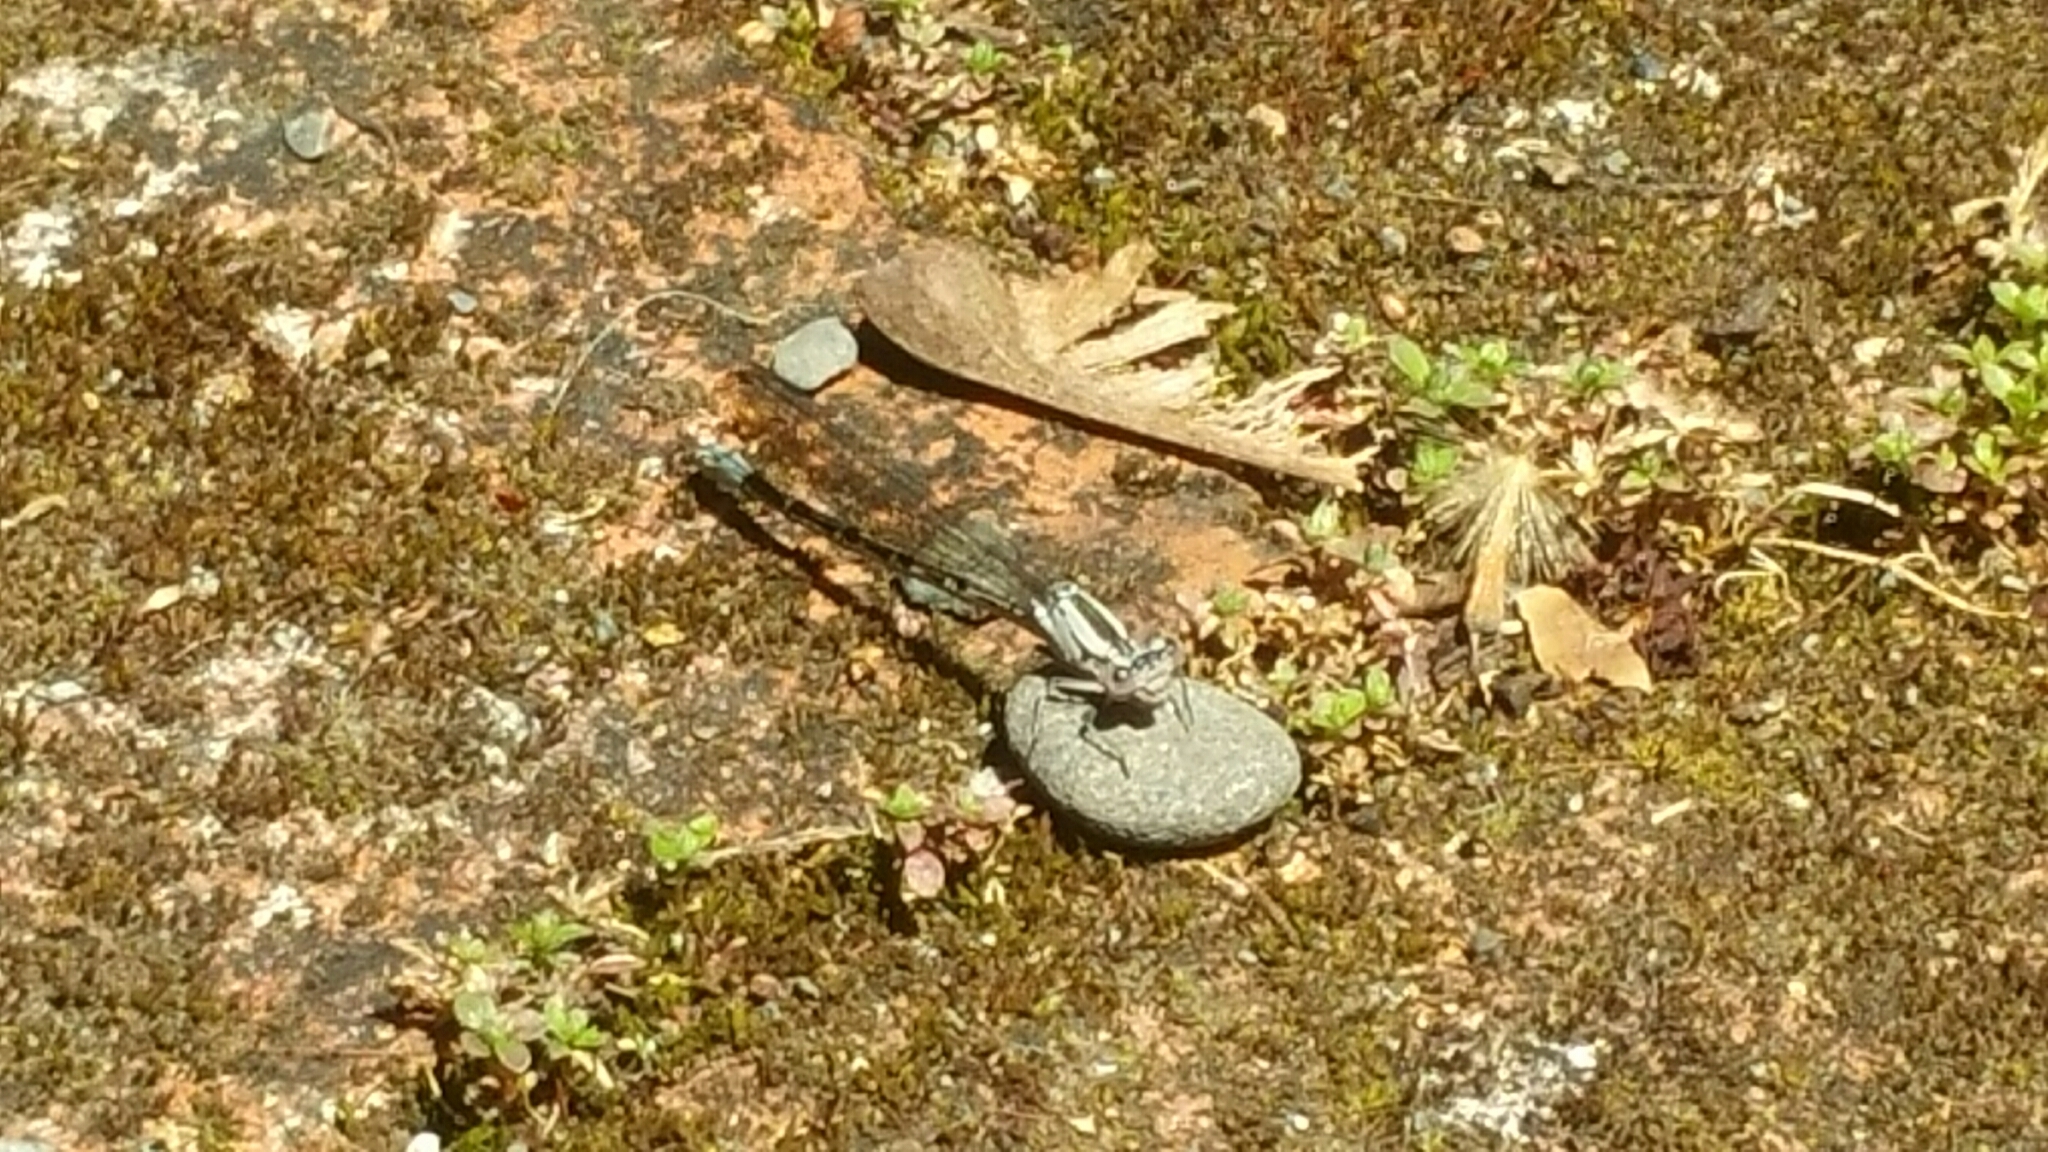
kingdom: Animalia
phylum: Arthropoda
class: Insecta
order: Odonata
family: Coenagrionidae
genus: Argia
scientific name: Argia vivida
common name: Vivid dancer
